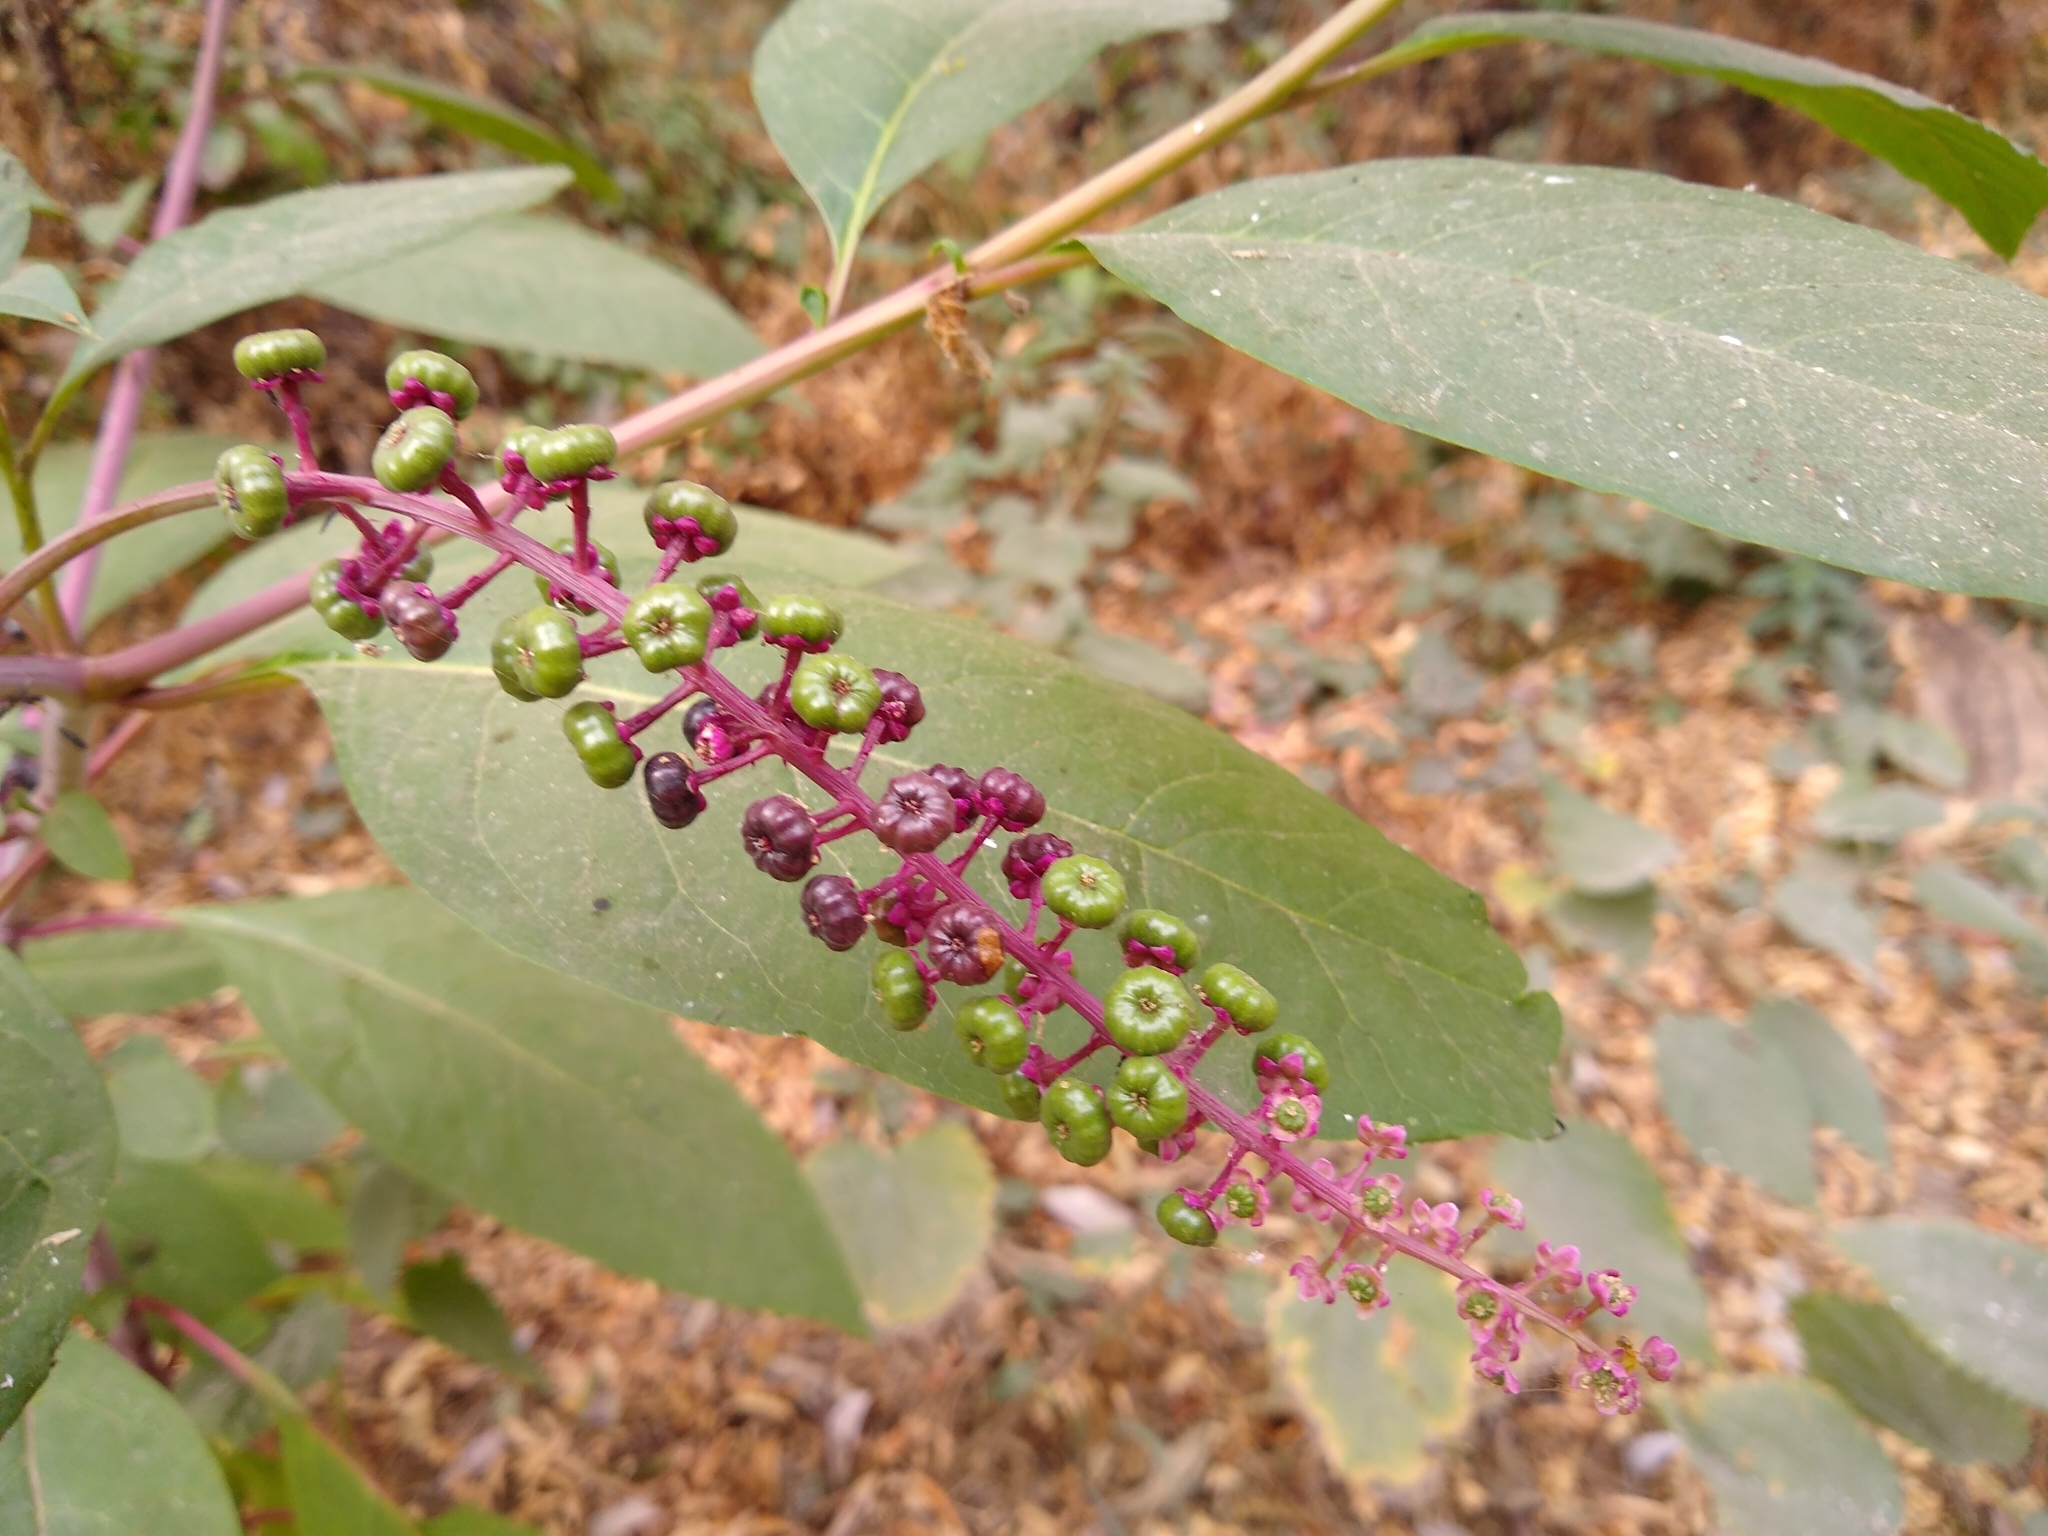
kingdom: Plantae
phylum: Tracheophyta
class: Magnoliopsida
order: Caryophyllales
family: Phytolaccaceae
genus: Phytolacca
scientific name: Phytolacca americana
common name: American pokeweed
